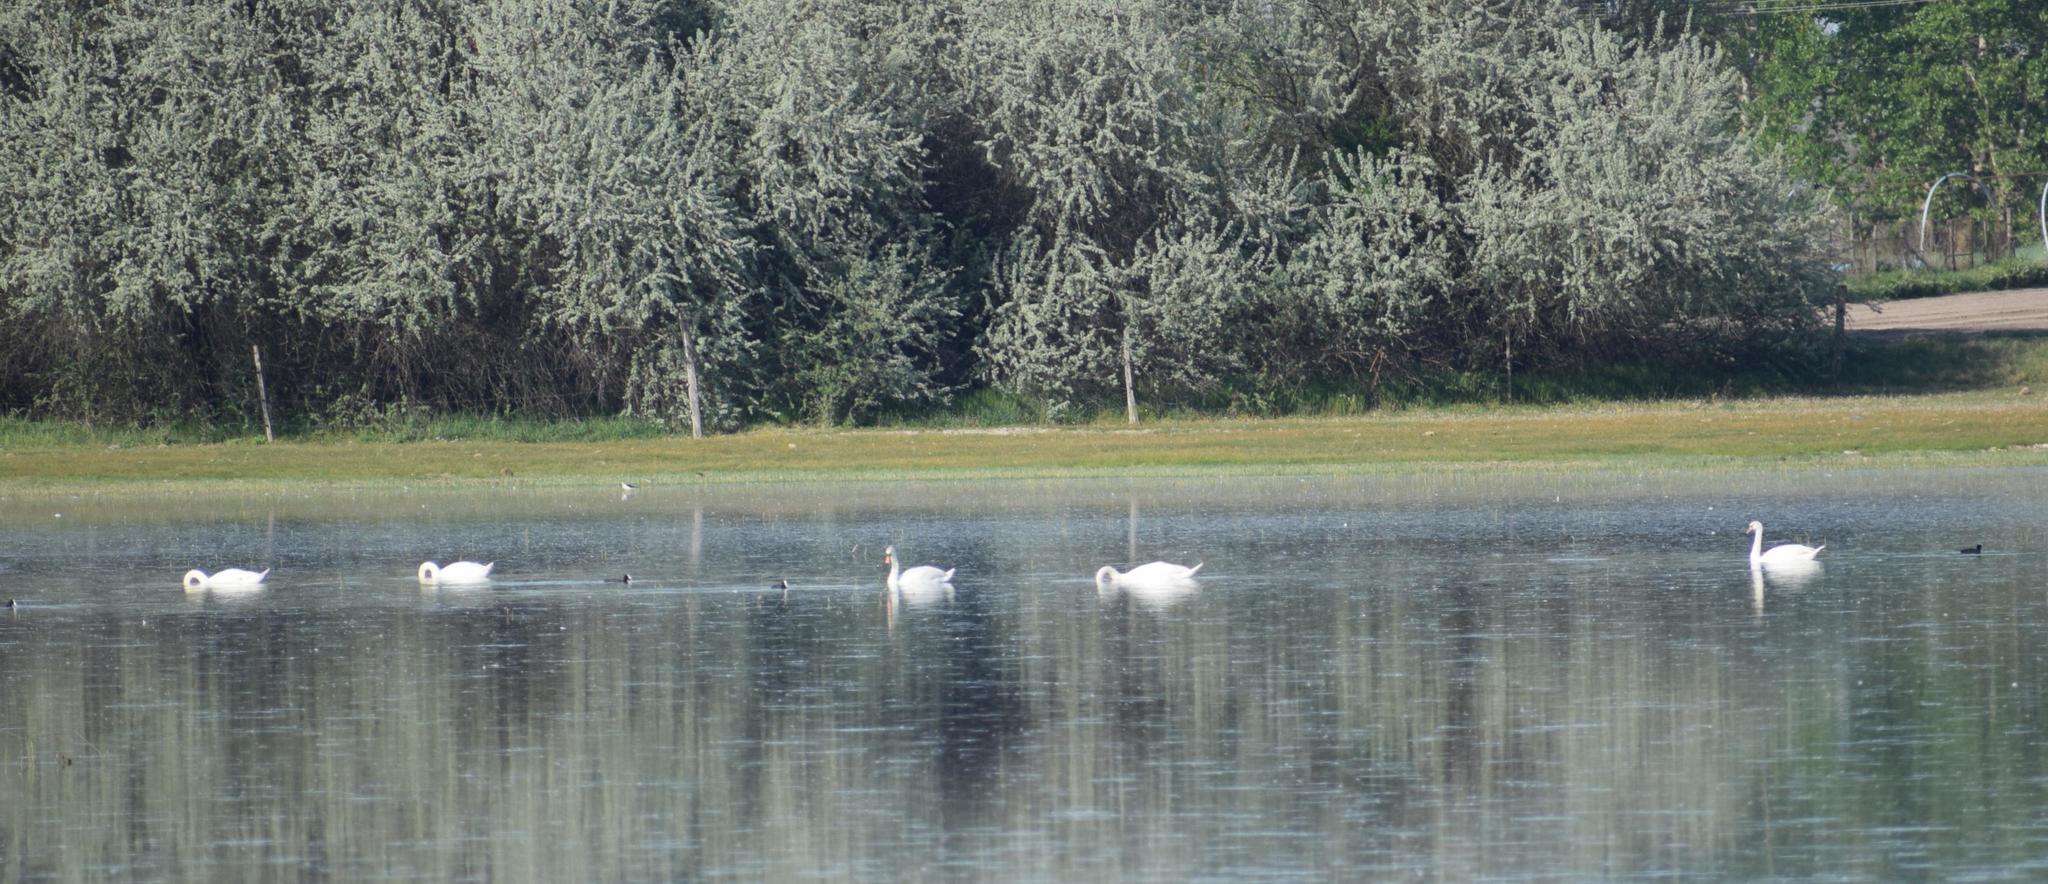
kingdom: Animalia
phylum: Chordata
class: Aves
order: Anseriformes
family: Anatidae
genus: Cygnus
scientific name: Cygnus olor
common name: Mute swan
